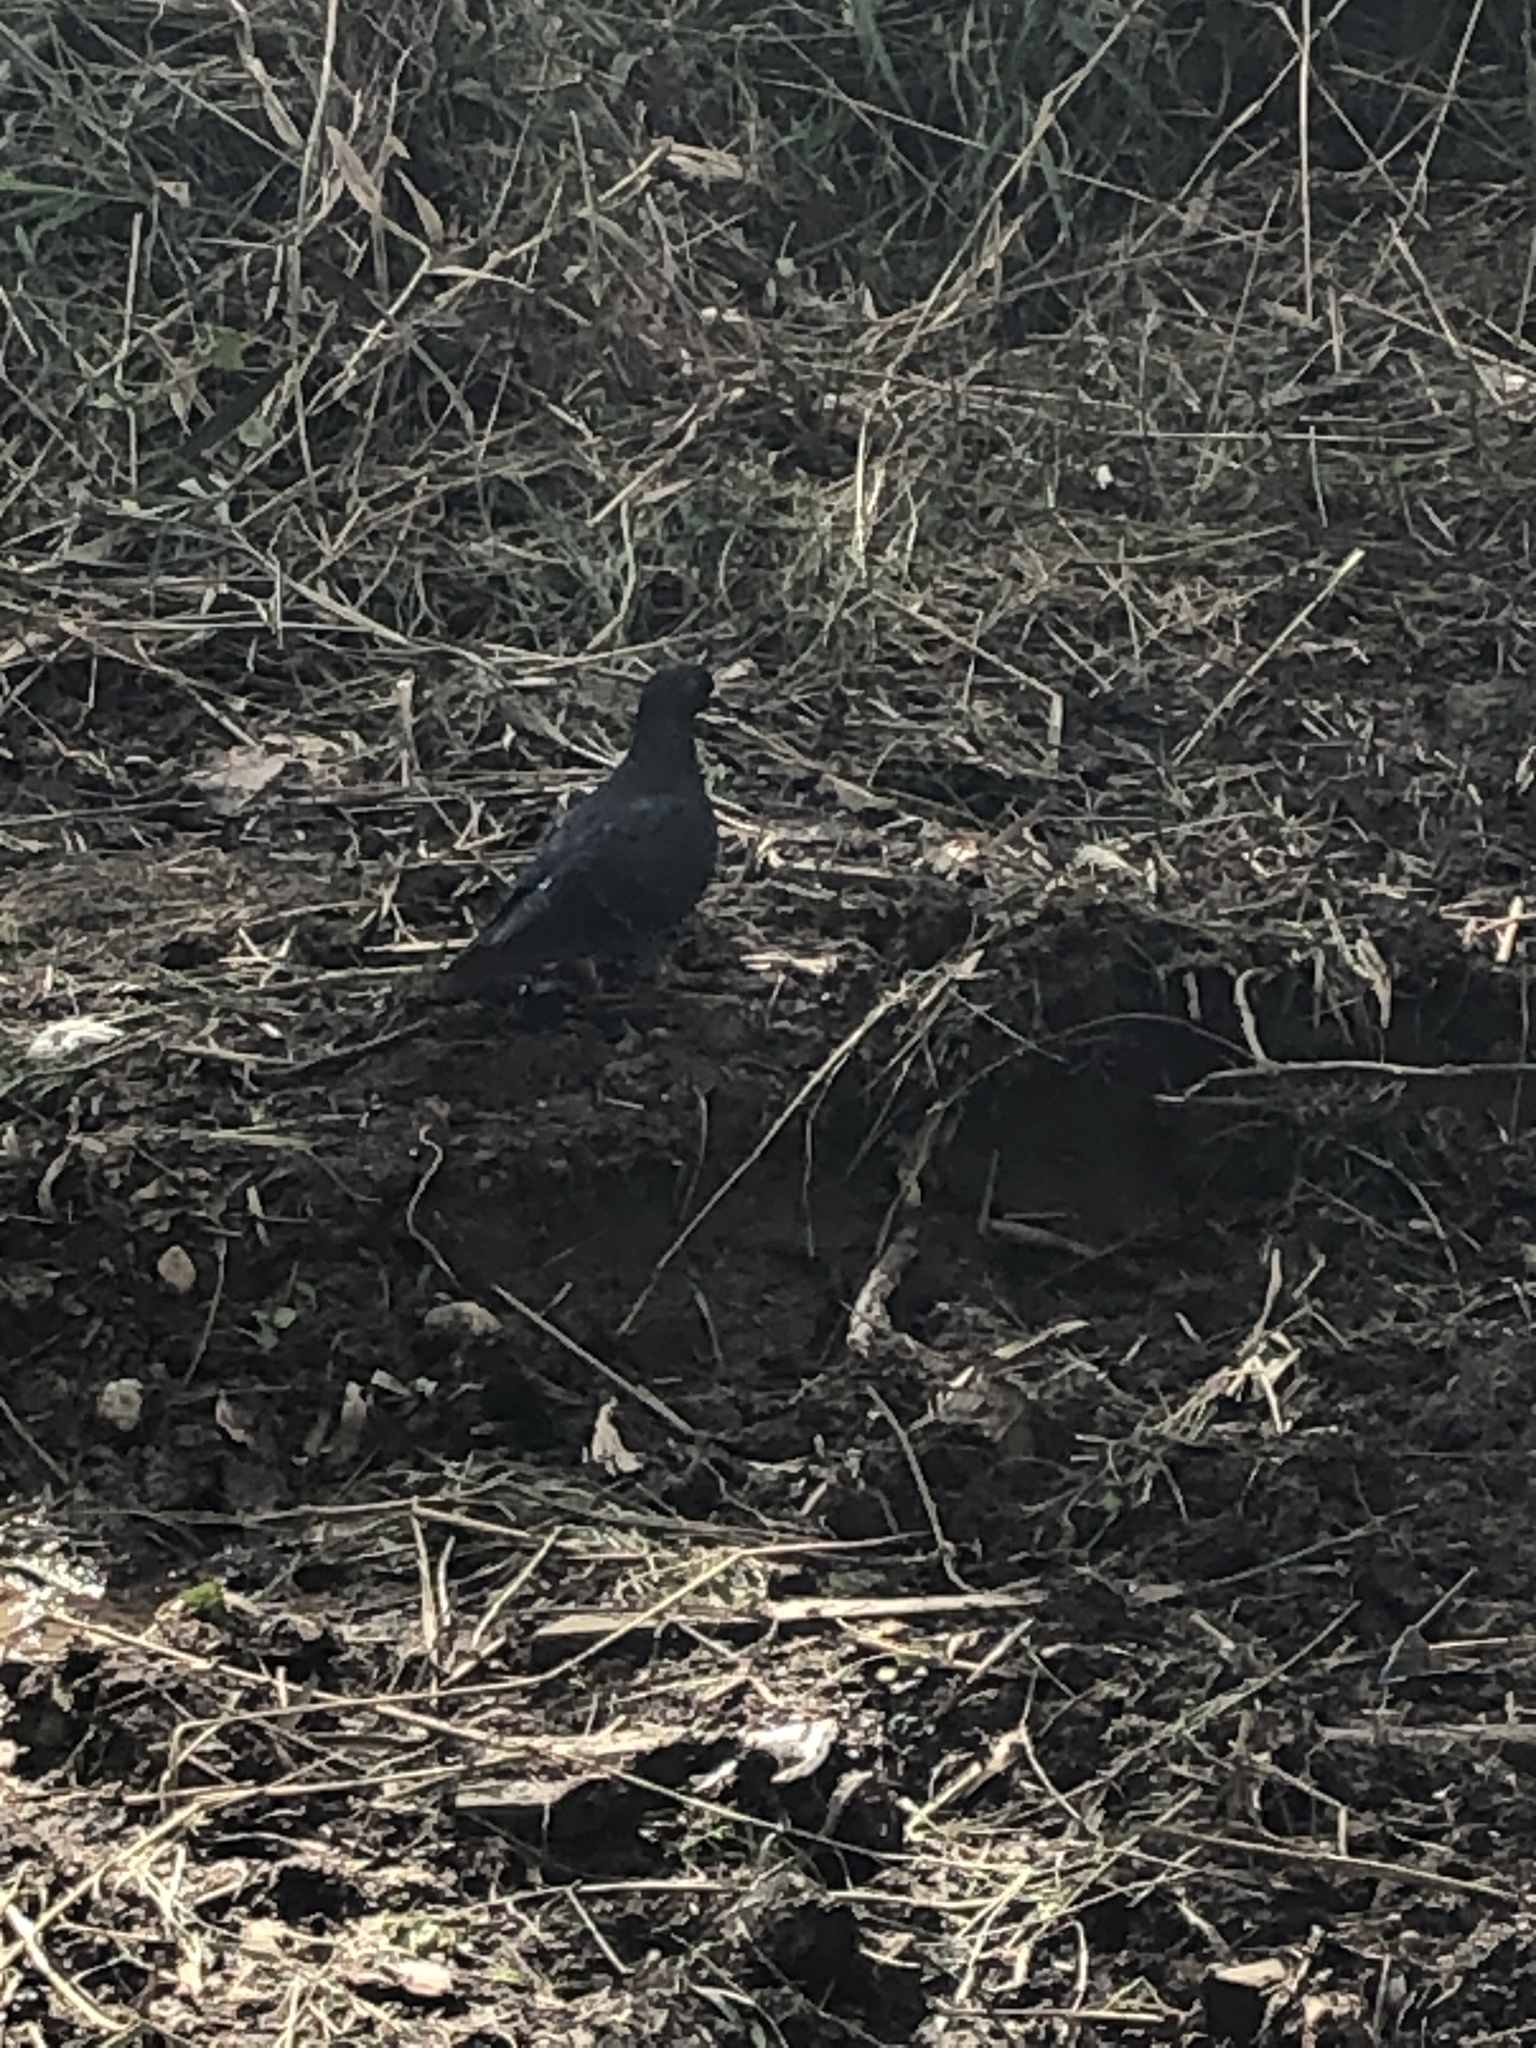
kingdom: Animalia
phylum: Chordata
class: Aves
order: Columbiformes
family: Columbidae
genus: Columba
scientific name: Columba livia
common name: Rock pigeon
